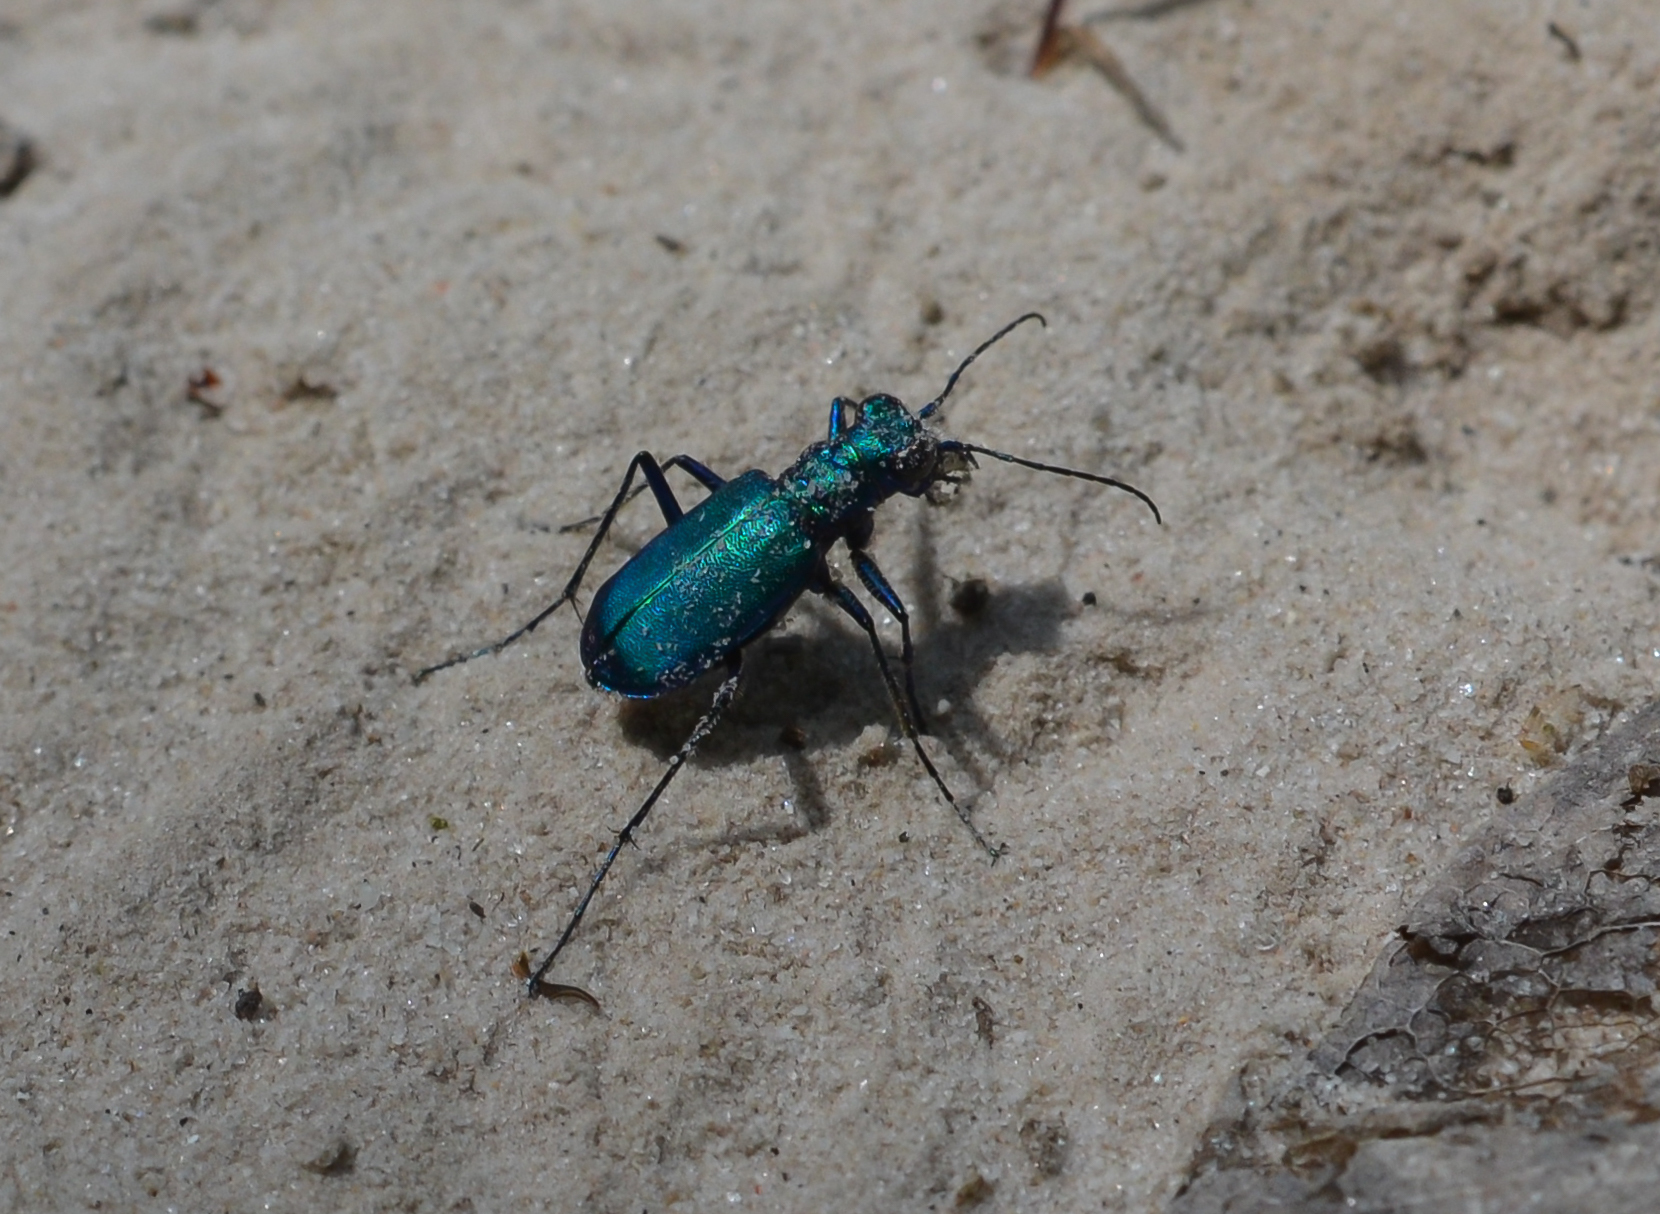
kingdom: Animalia
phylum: Arthropoda
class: Insecta
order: Coleoptera
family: Carabidae
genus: Cicindela
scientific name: Cicindela sexguttata
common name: Six-spotted tiger beetle
